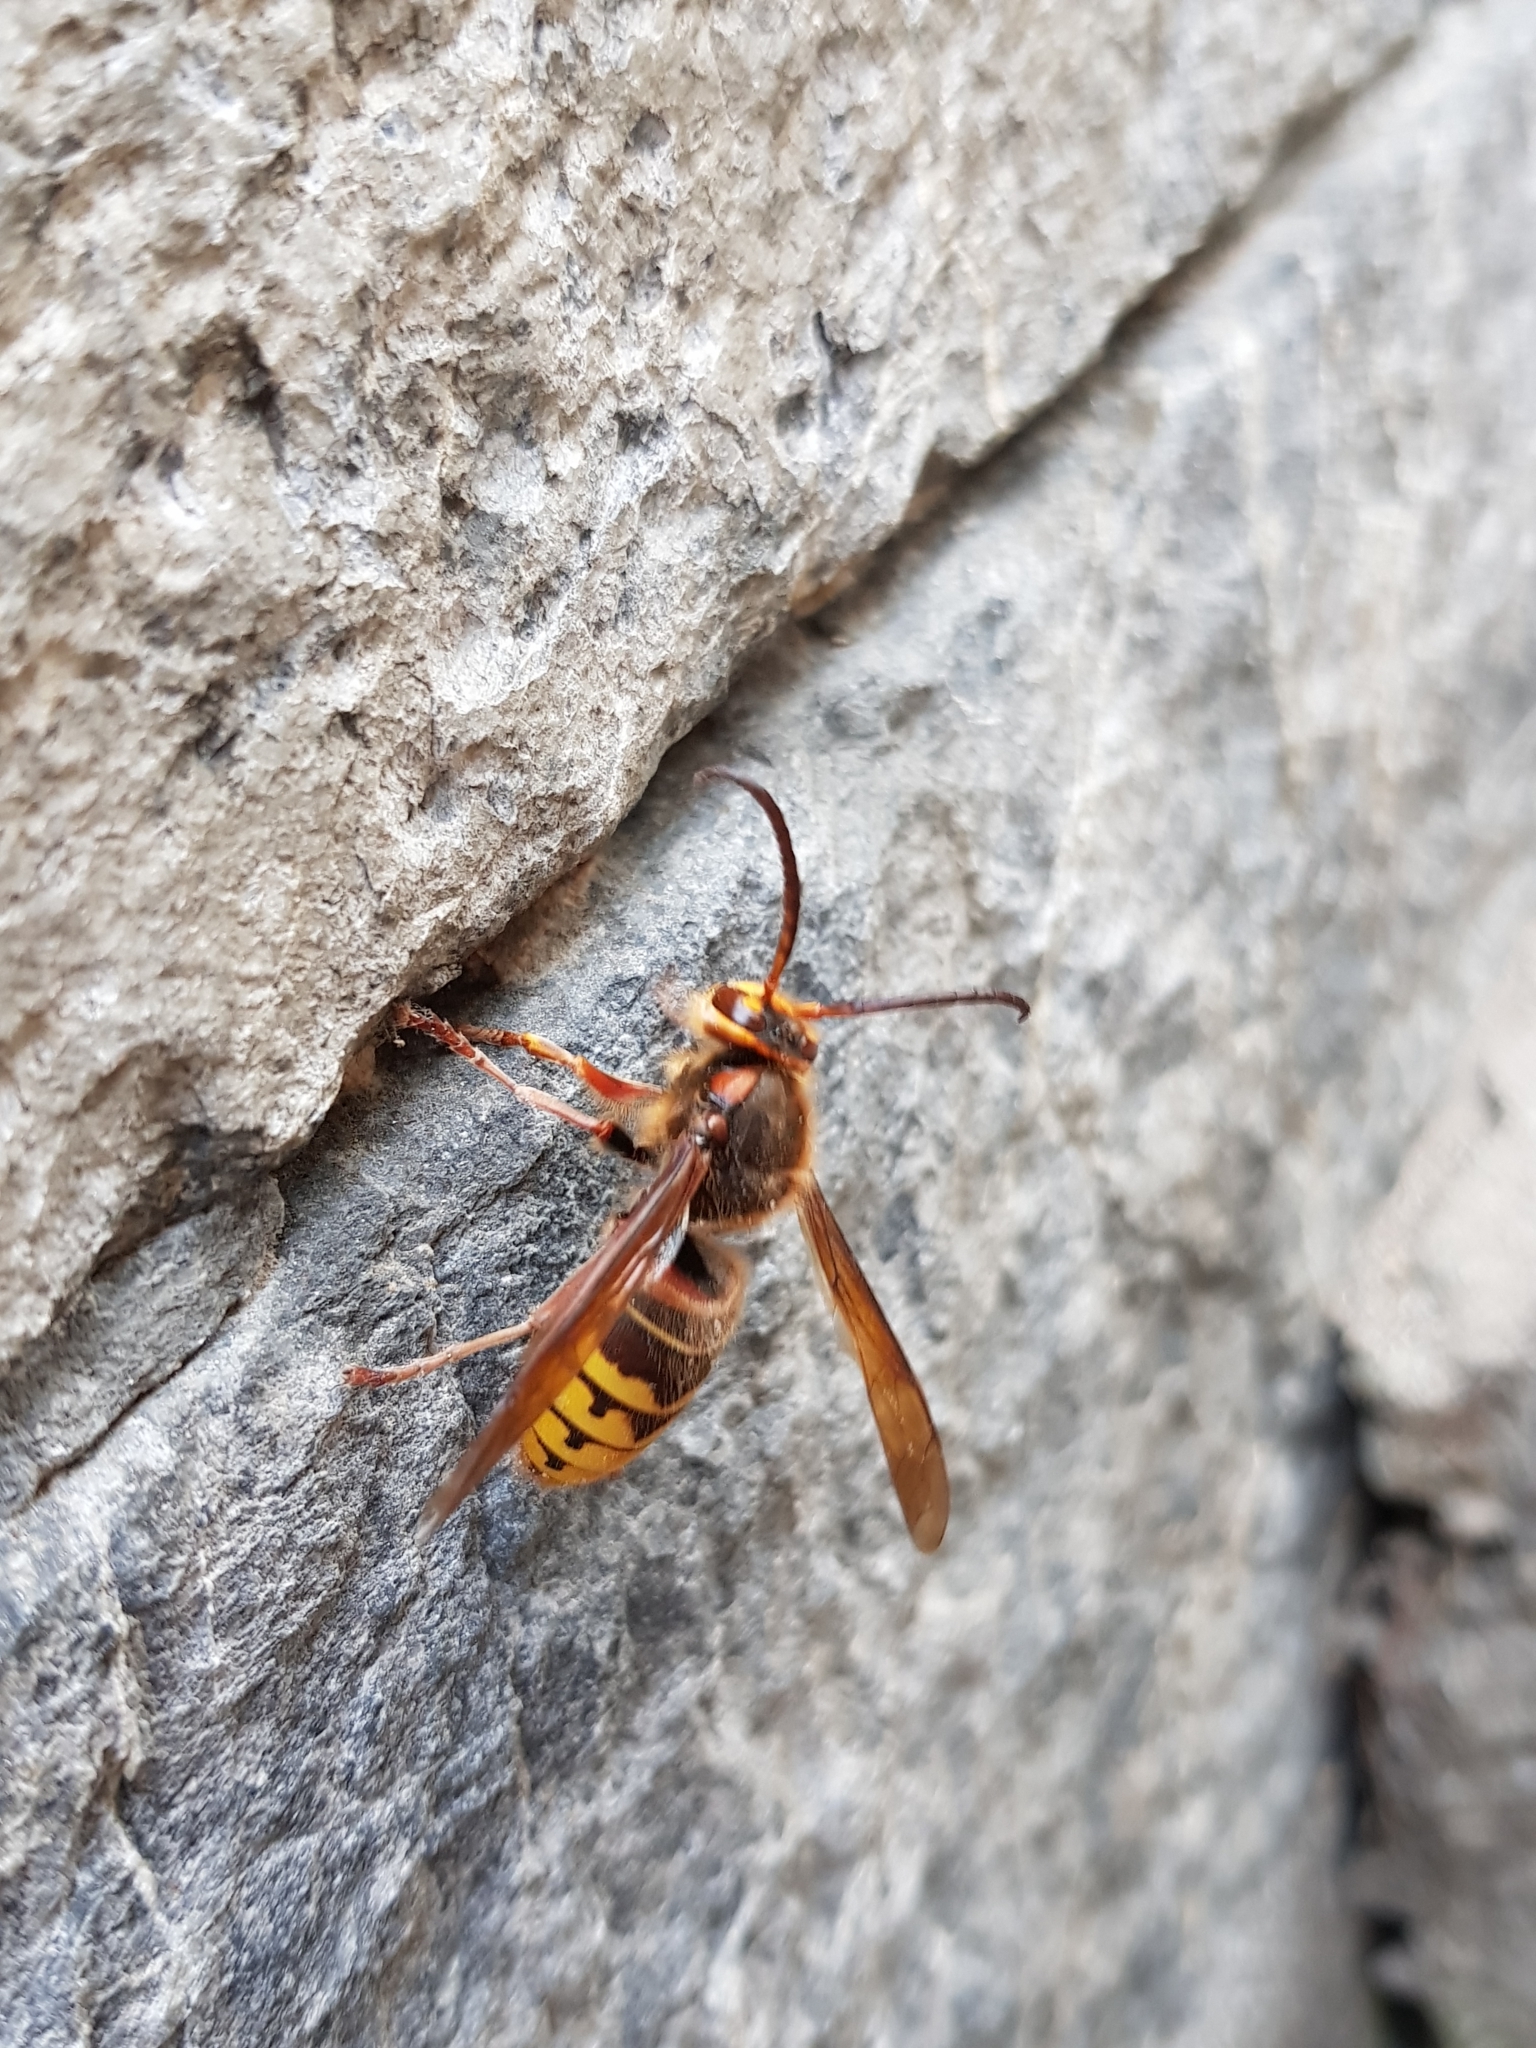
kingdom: Animalia
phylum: Arthropoda
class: Insecta
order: Hymenoptera
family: Vespidae
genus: Vespa
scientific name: Vespa crabro
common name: Hornet
